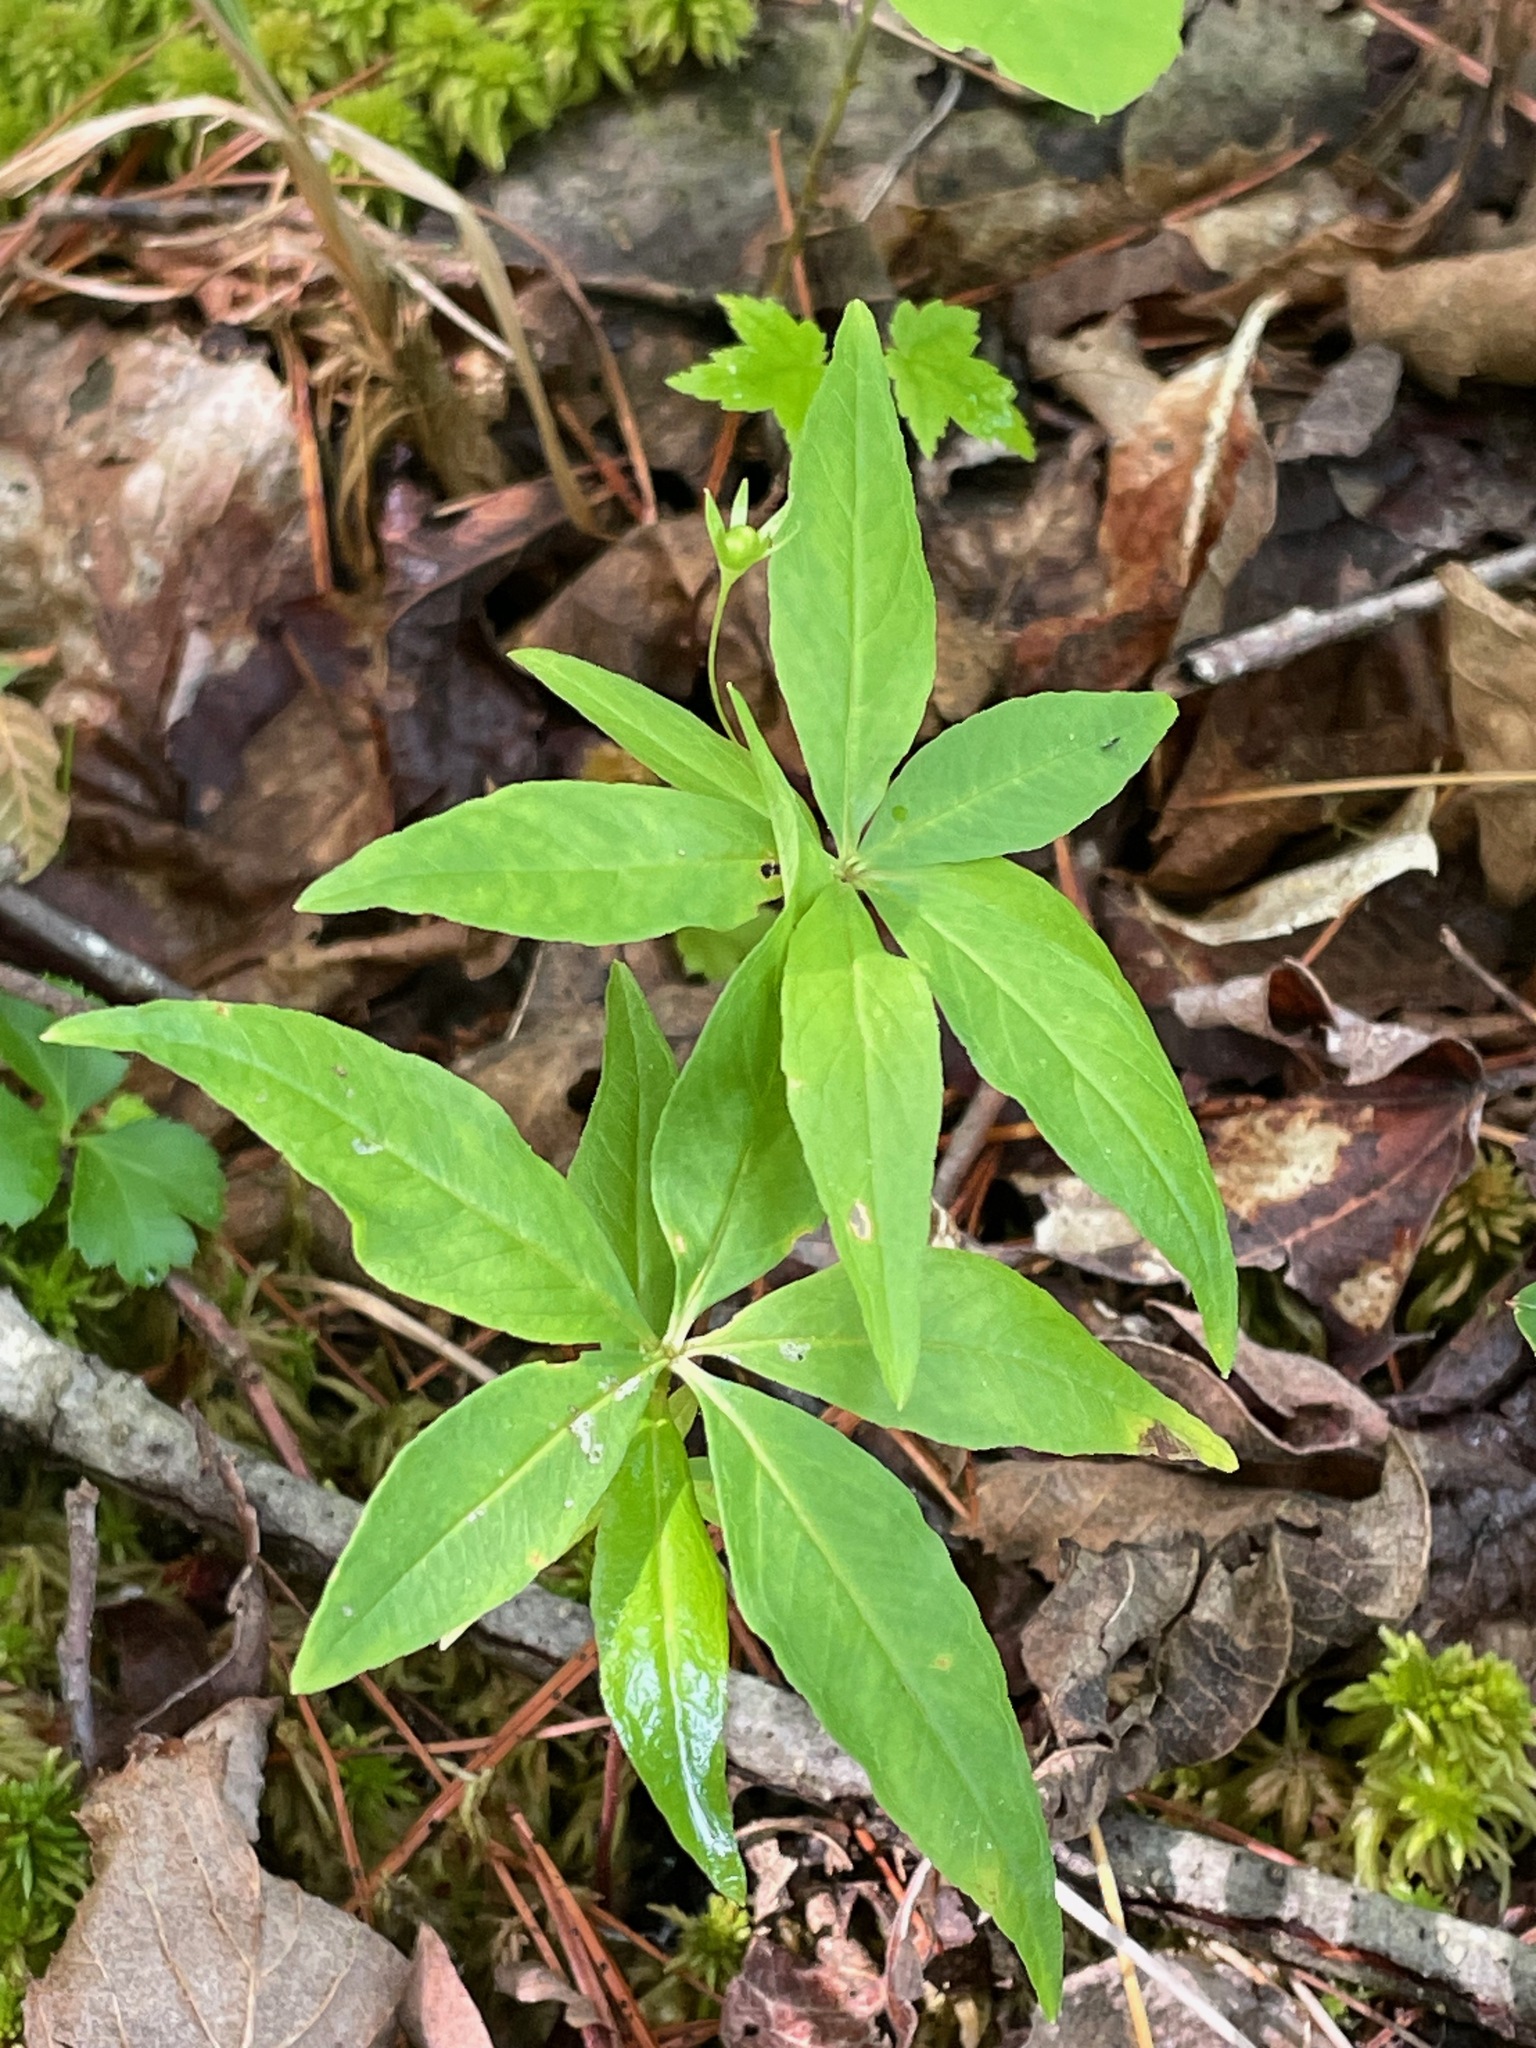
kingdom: Plantae
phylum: Tracheophyta
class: Magnoliopsida
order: Ericales
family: Primulaceae
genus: Lysimachia
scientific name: Lysimachia borealis
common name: American starflower
